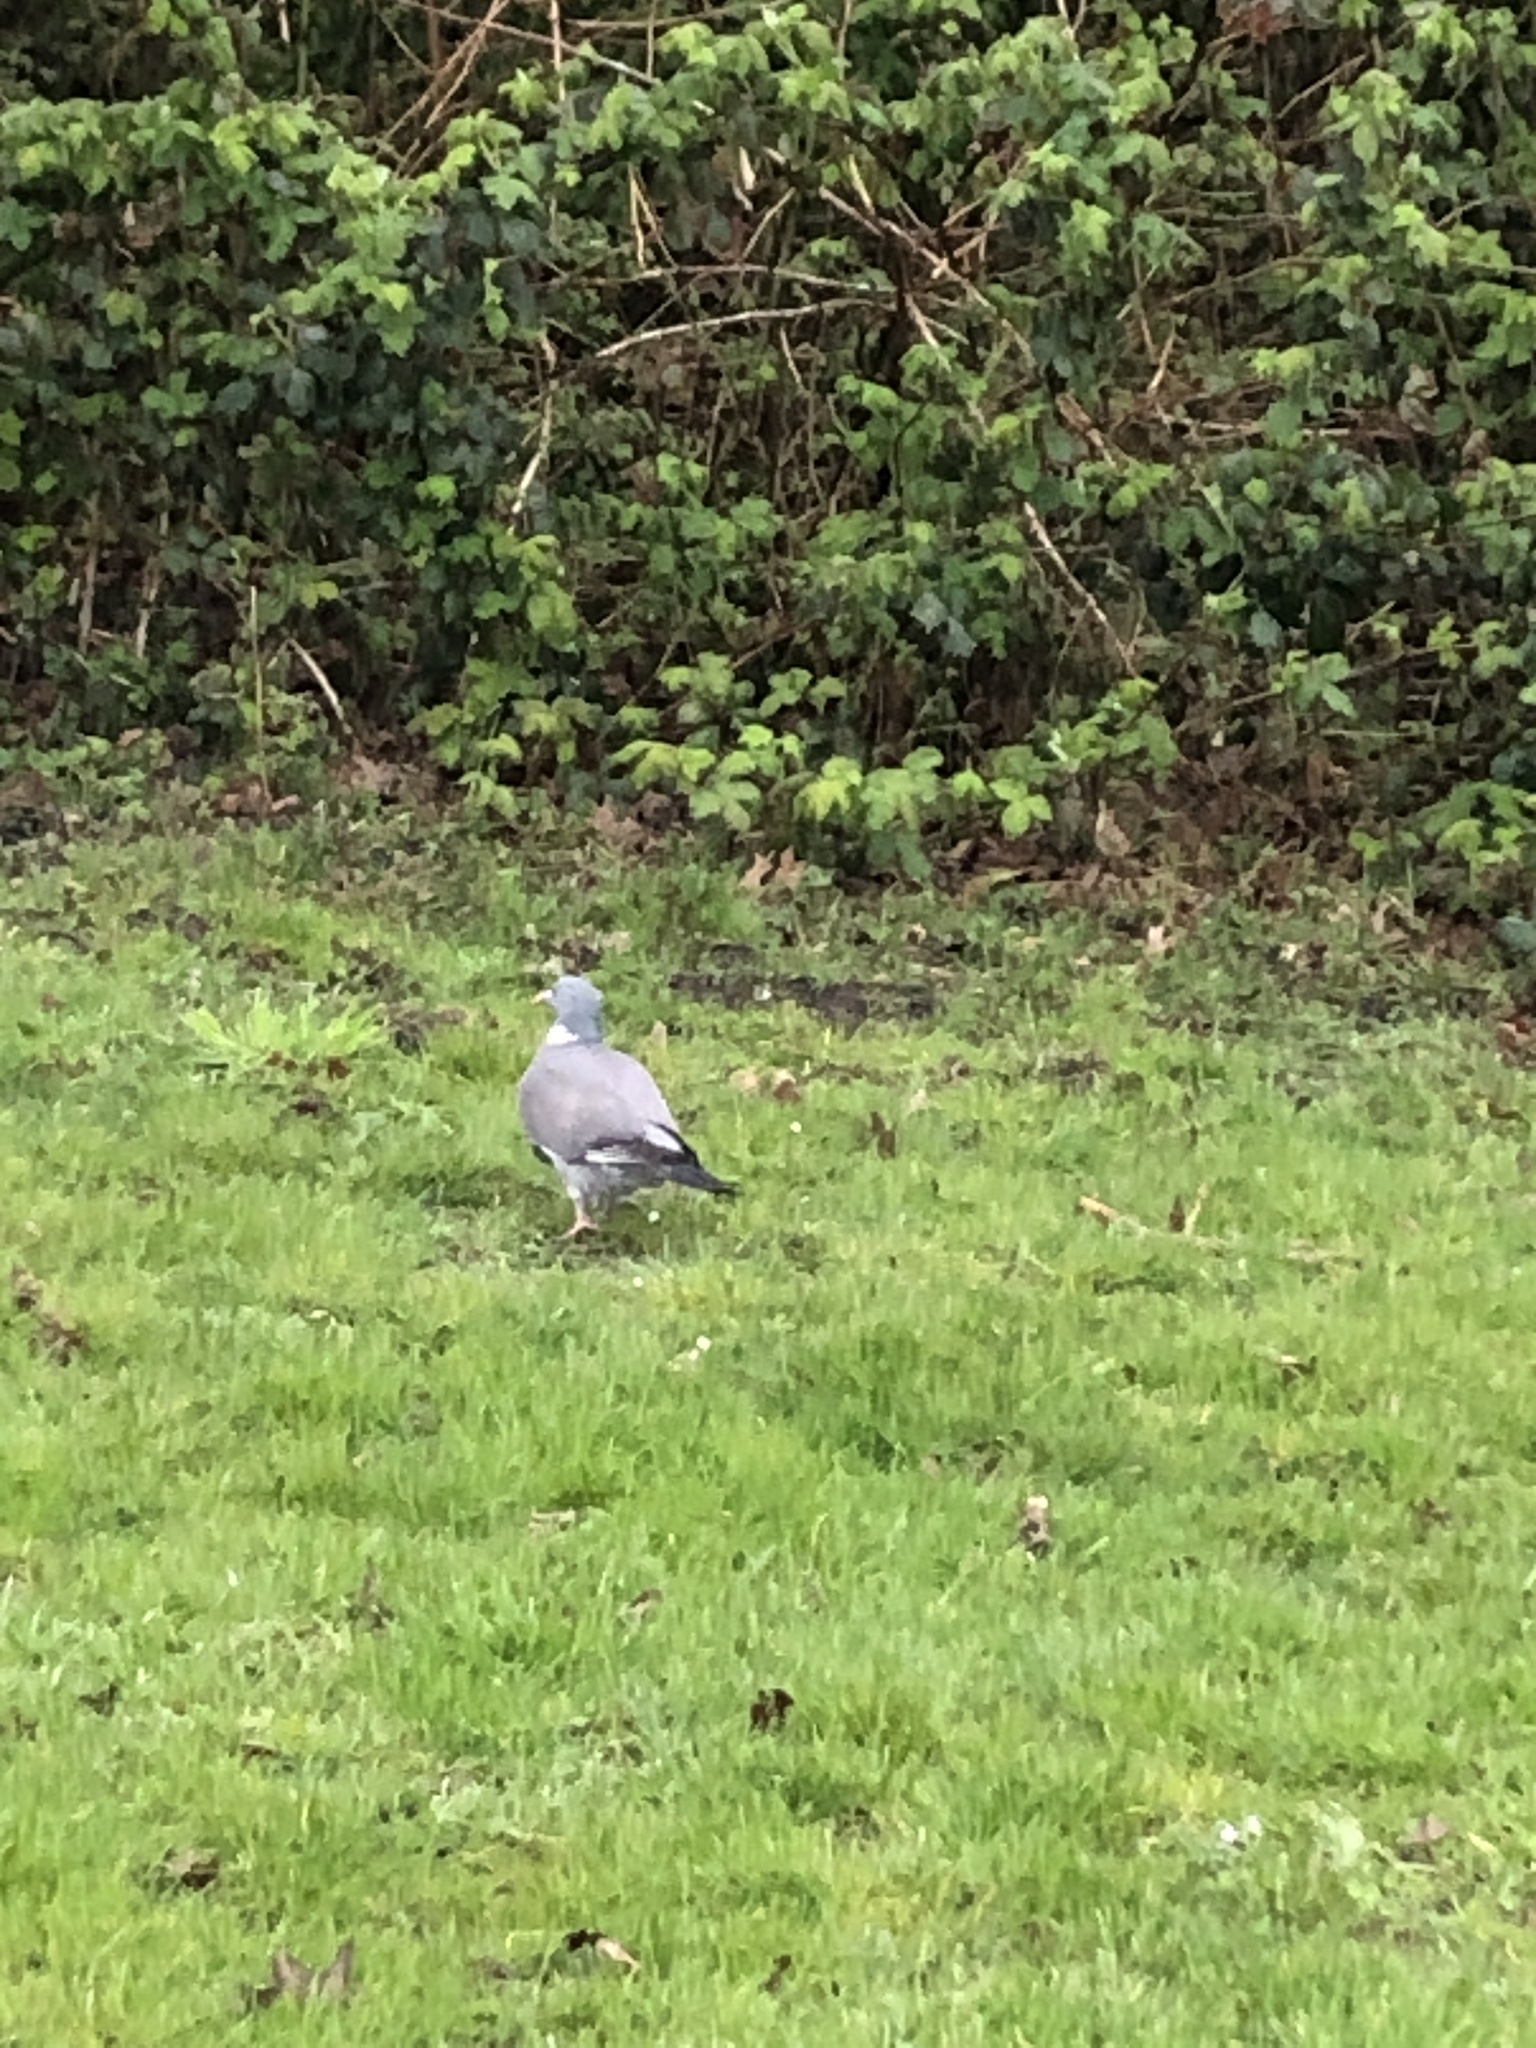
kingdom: Animalia
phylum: Chordata
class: Aves
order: Columbiformes
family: Columbidae
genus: Columba
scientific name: Columba palumbus
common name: Common wood pigeon
